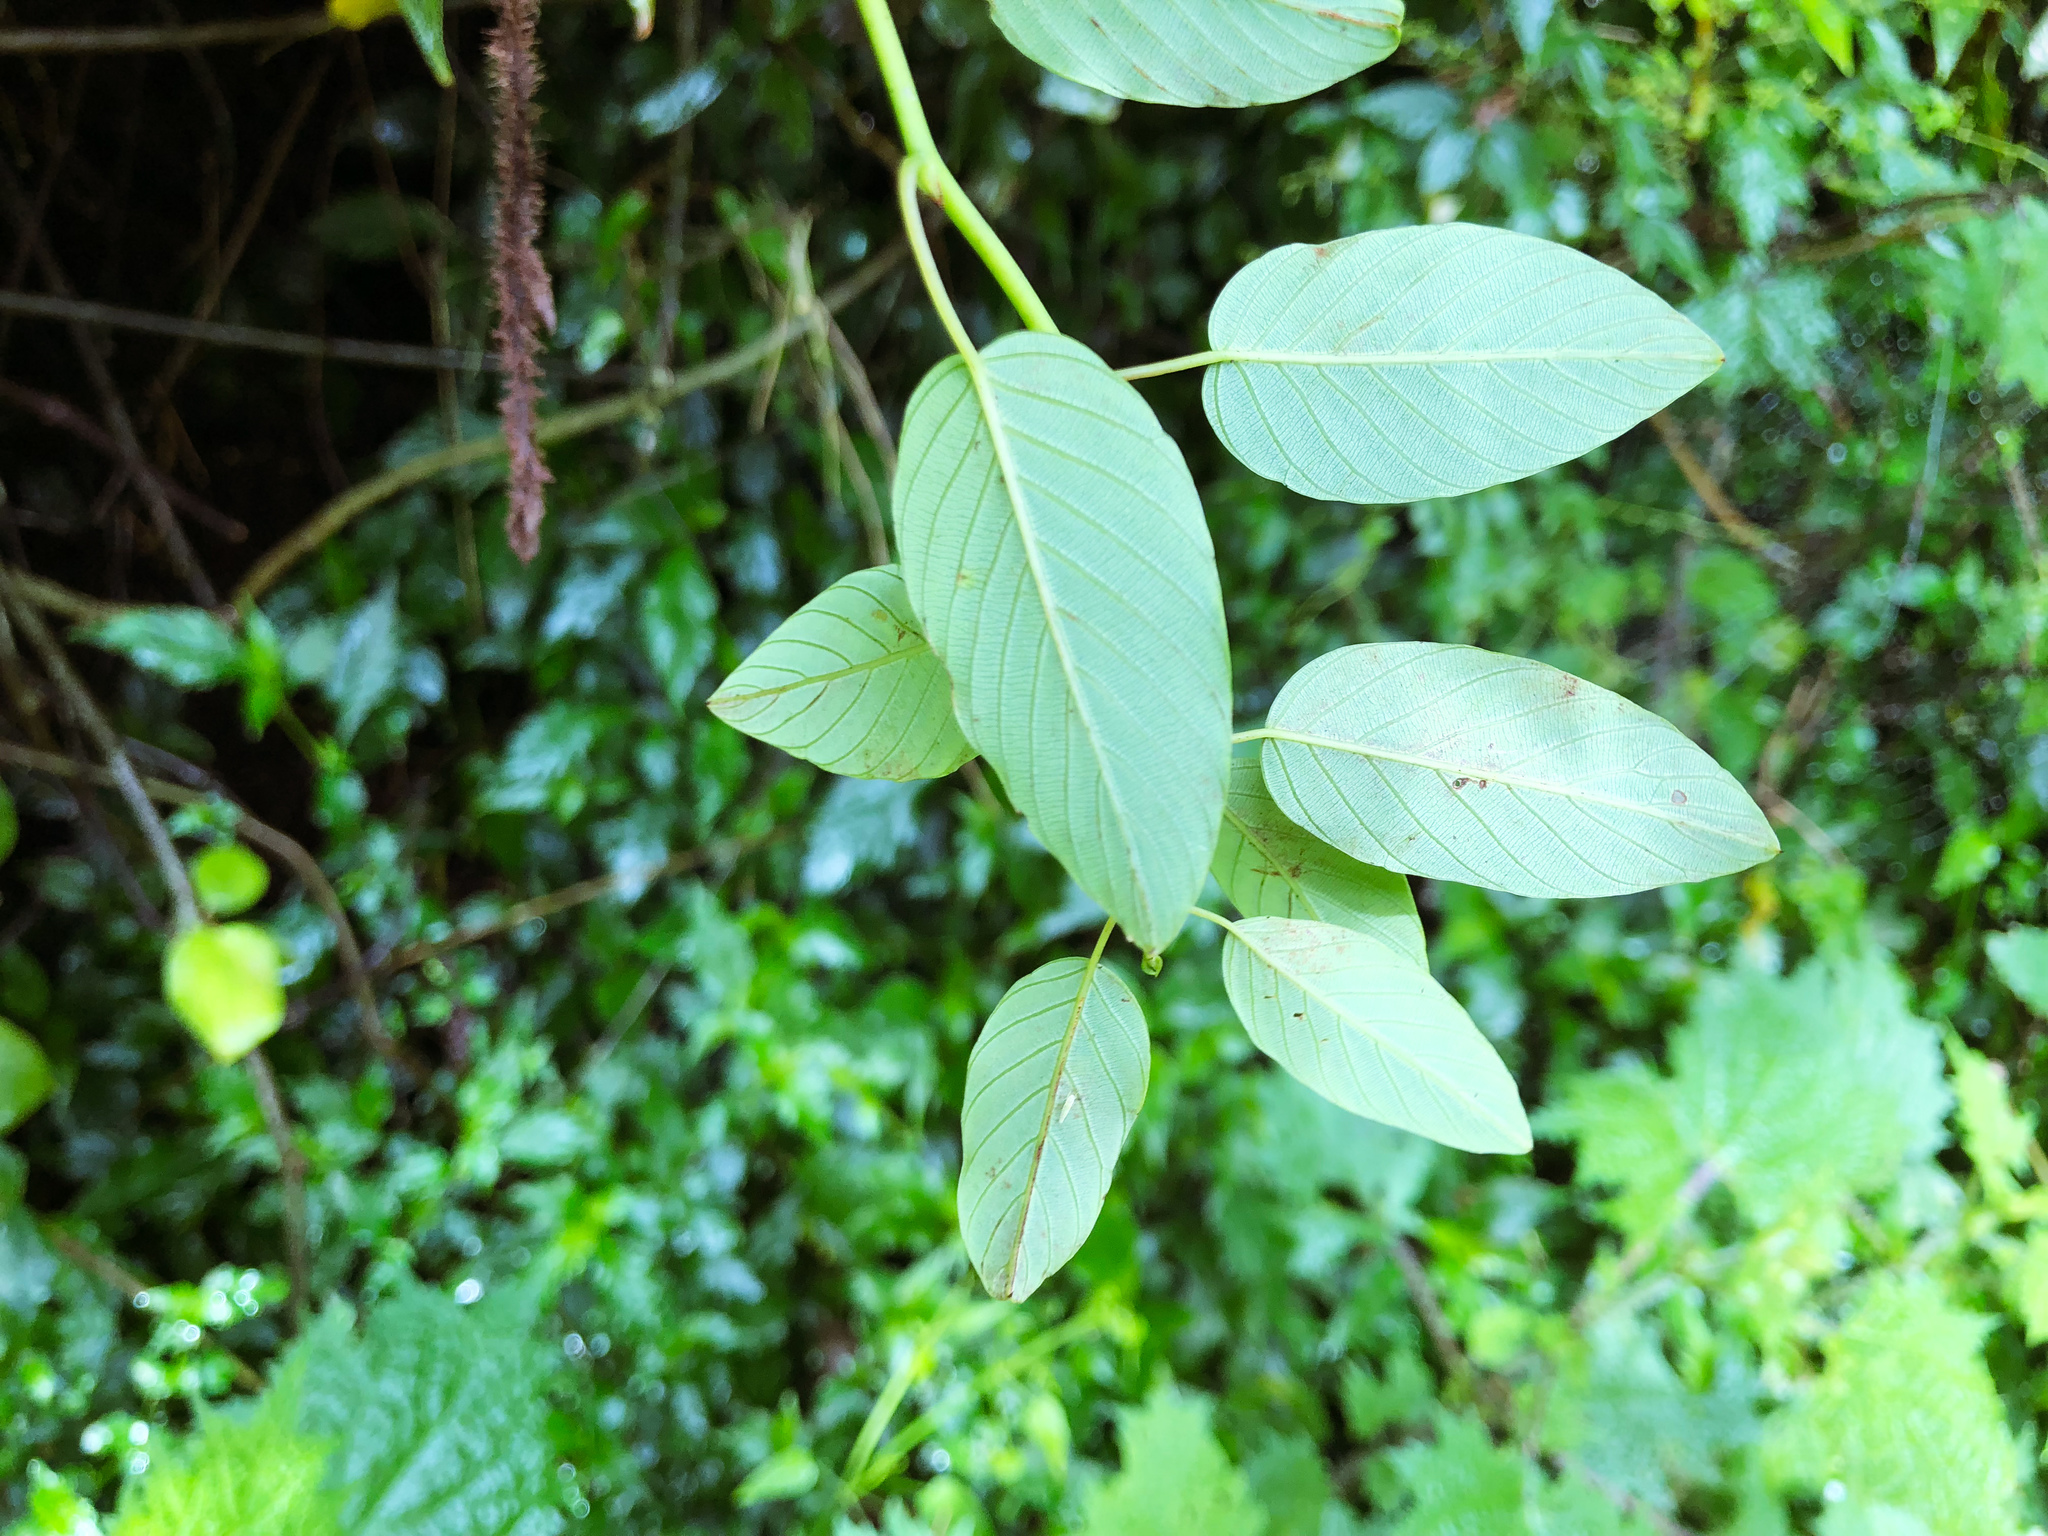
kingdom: Plantae
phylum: Tracheophyta
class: Magnoliopsida
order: Rosales
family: Rhamnaceae
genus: Berchemia
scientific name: Berchemia formosana
